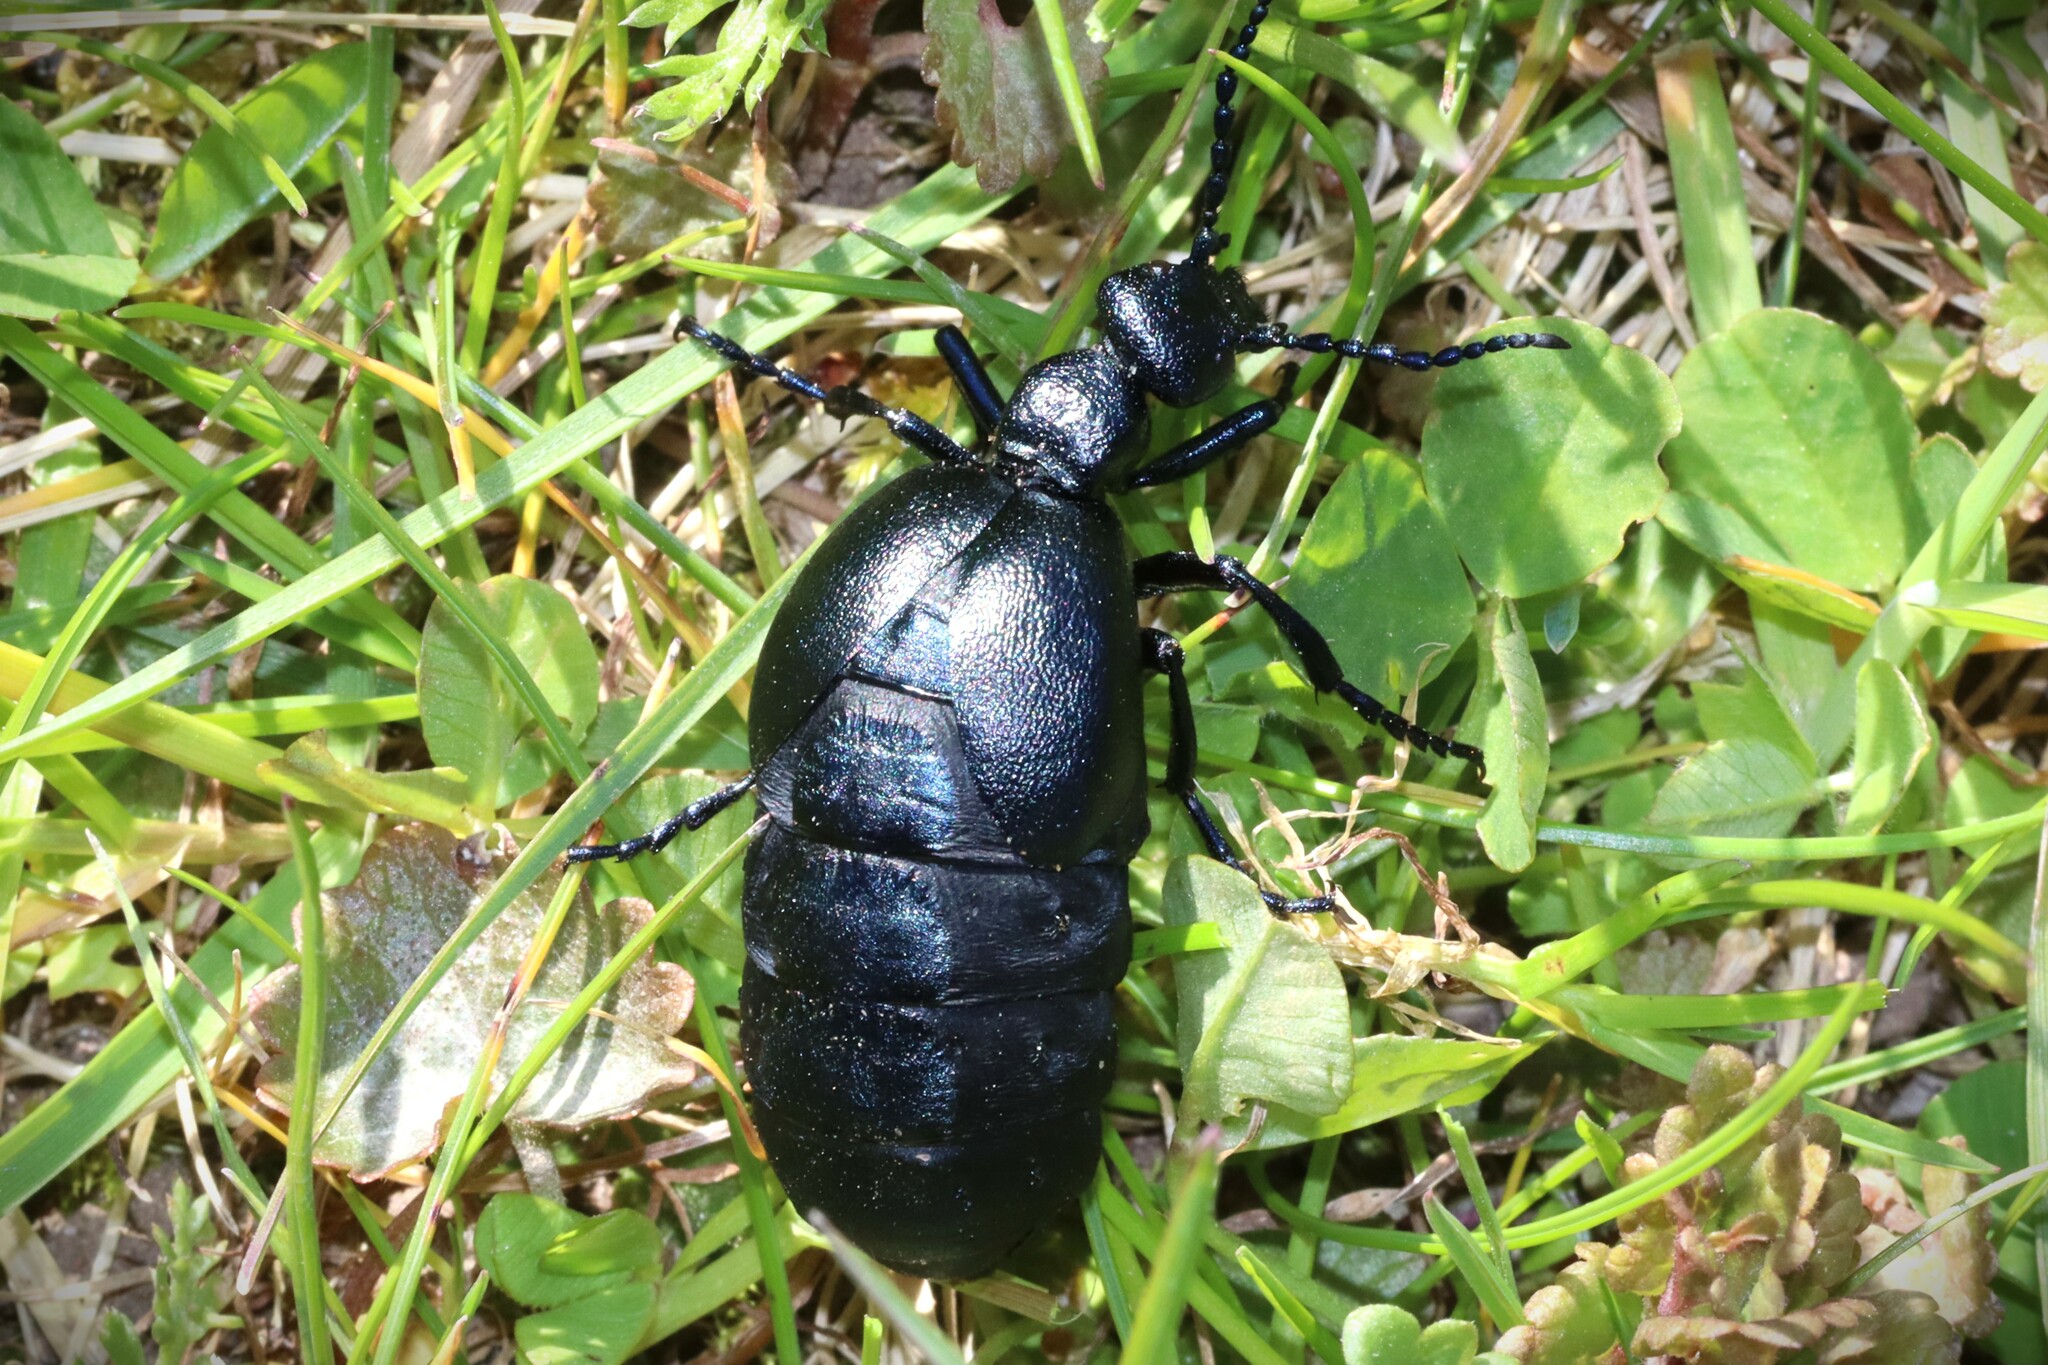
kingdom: Animalia
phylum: Arthropoda
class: Insecta
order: Coleoptera
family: Meloidae
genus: Meloe
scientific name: Meloe violaceus
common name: Violet oil-beetle
